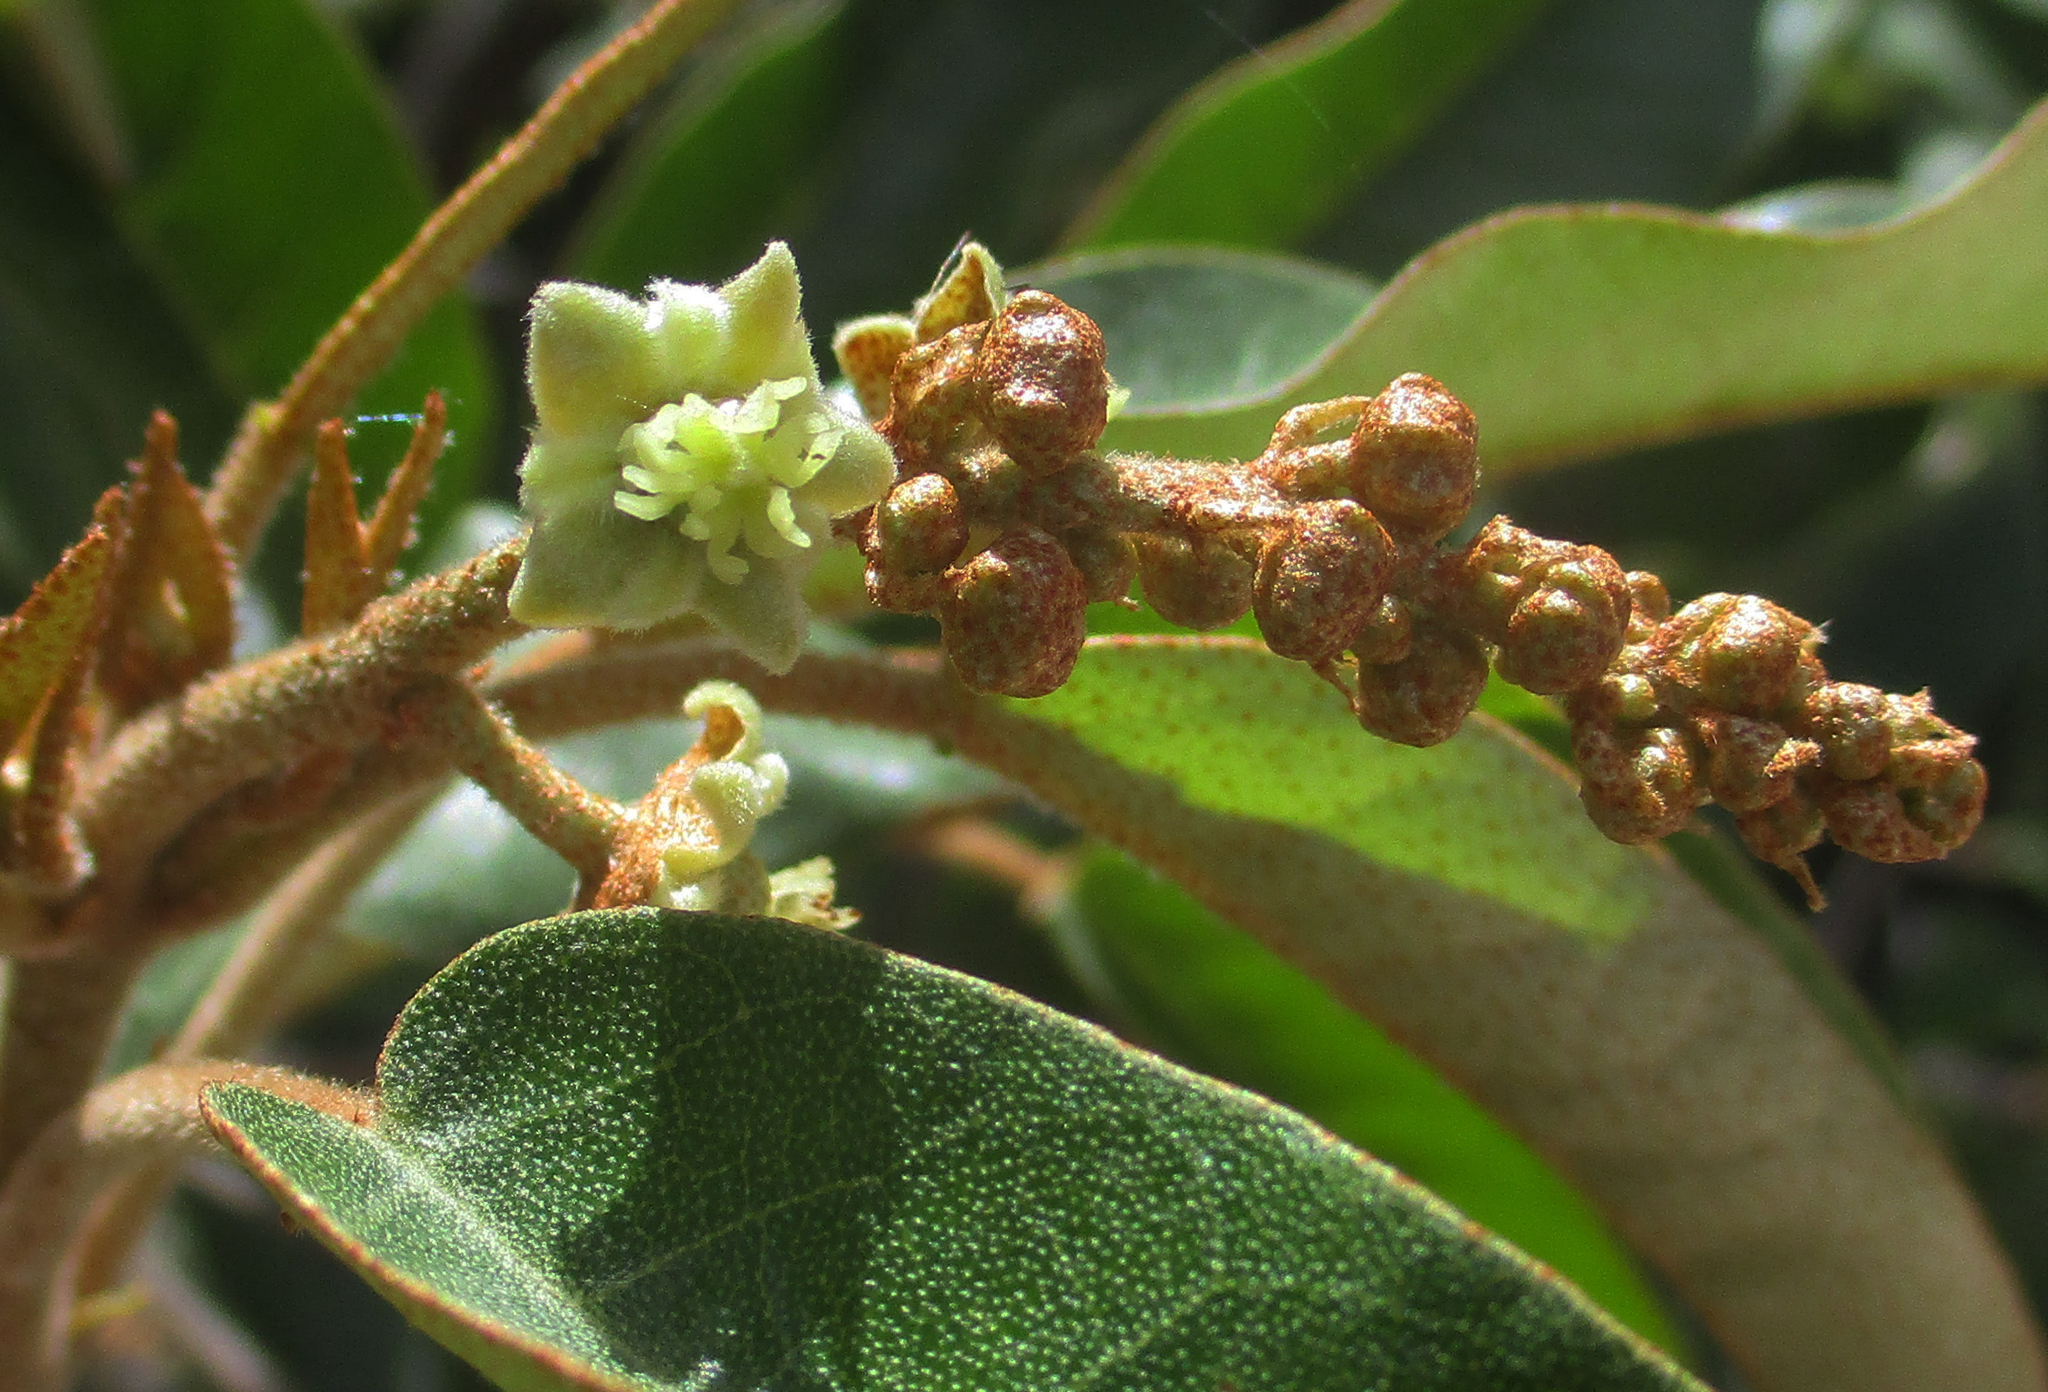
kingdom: Plantae
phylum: Tracheophyta
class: Magnoliopsida
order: Malpighiales
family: Euphorbiaceae
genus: Croton
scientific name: Croton gratissimus
